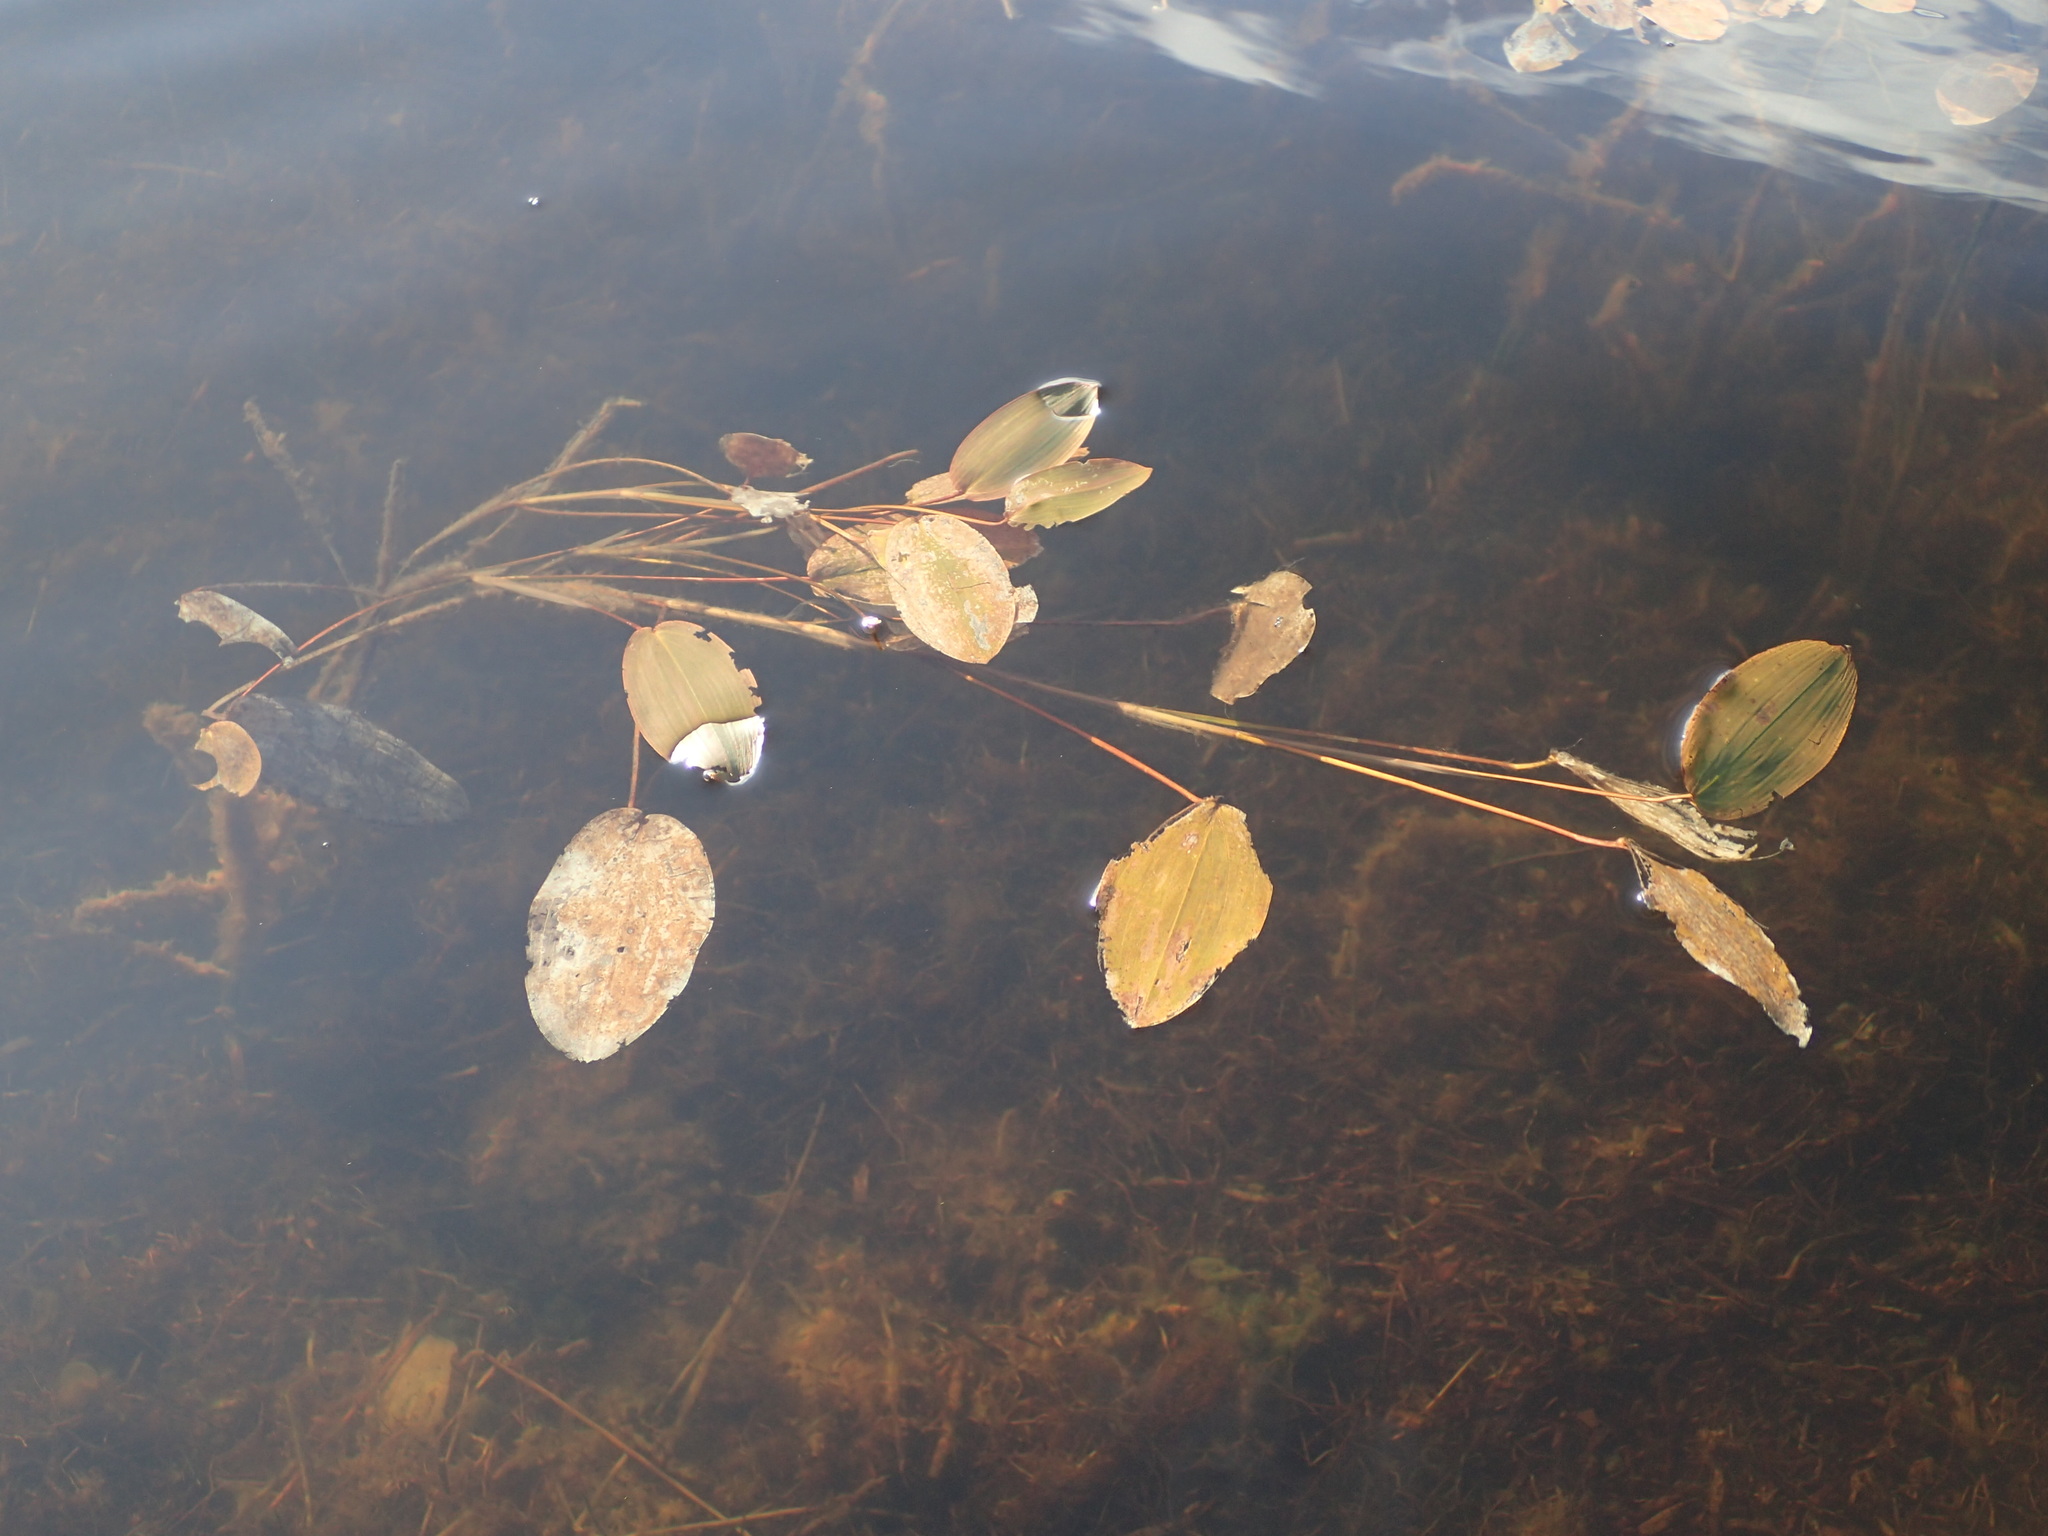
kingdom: Plantae
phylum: Tracheophyta
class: Liliopsida
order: Alismatales
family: Potamogetonaceae
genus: Potamogeton
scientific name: Potamogeton natans
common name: Broad-leaved pondweed
